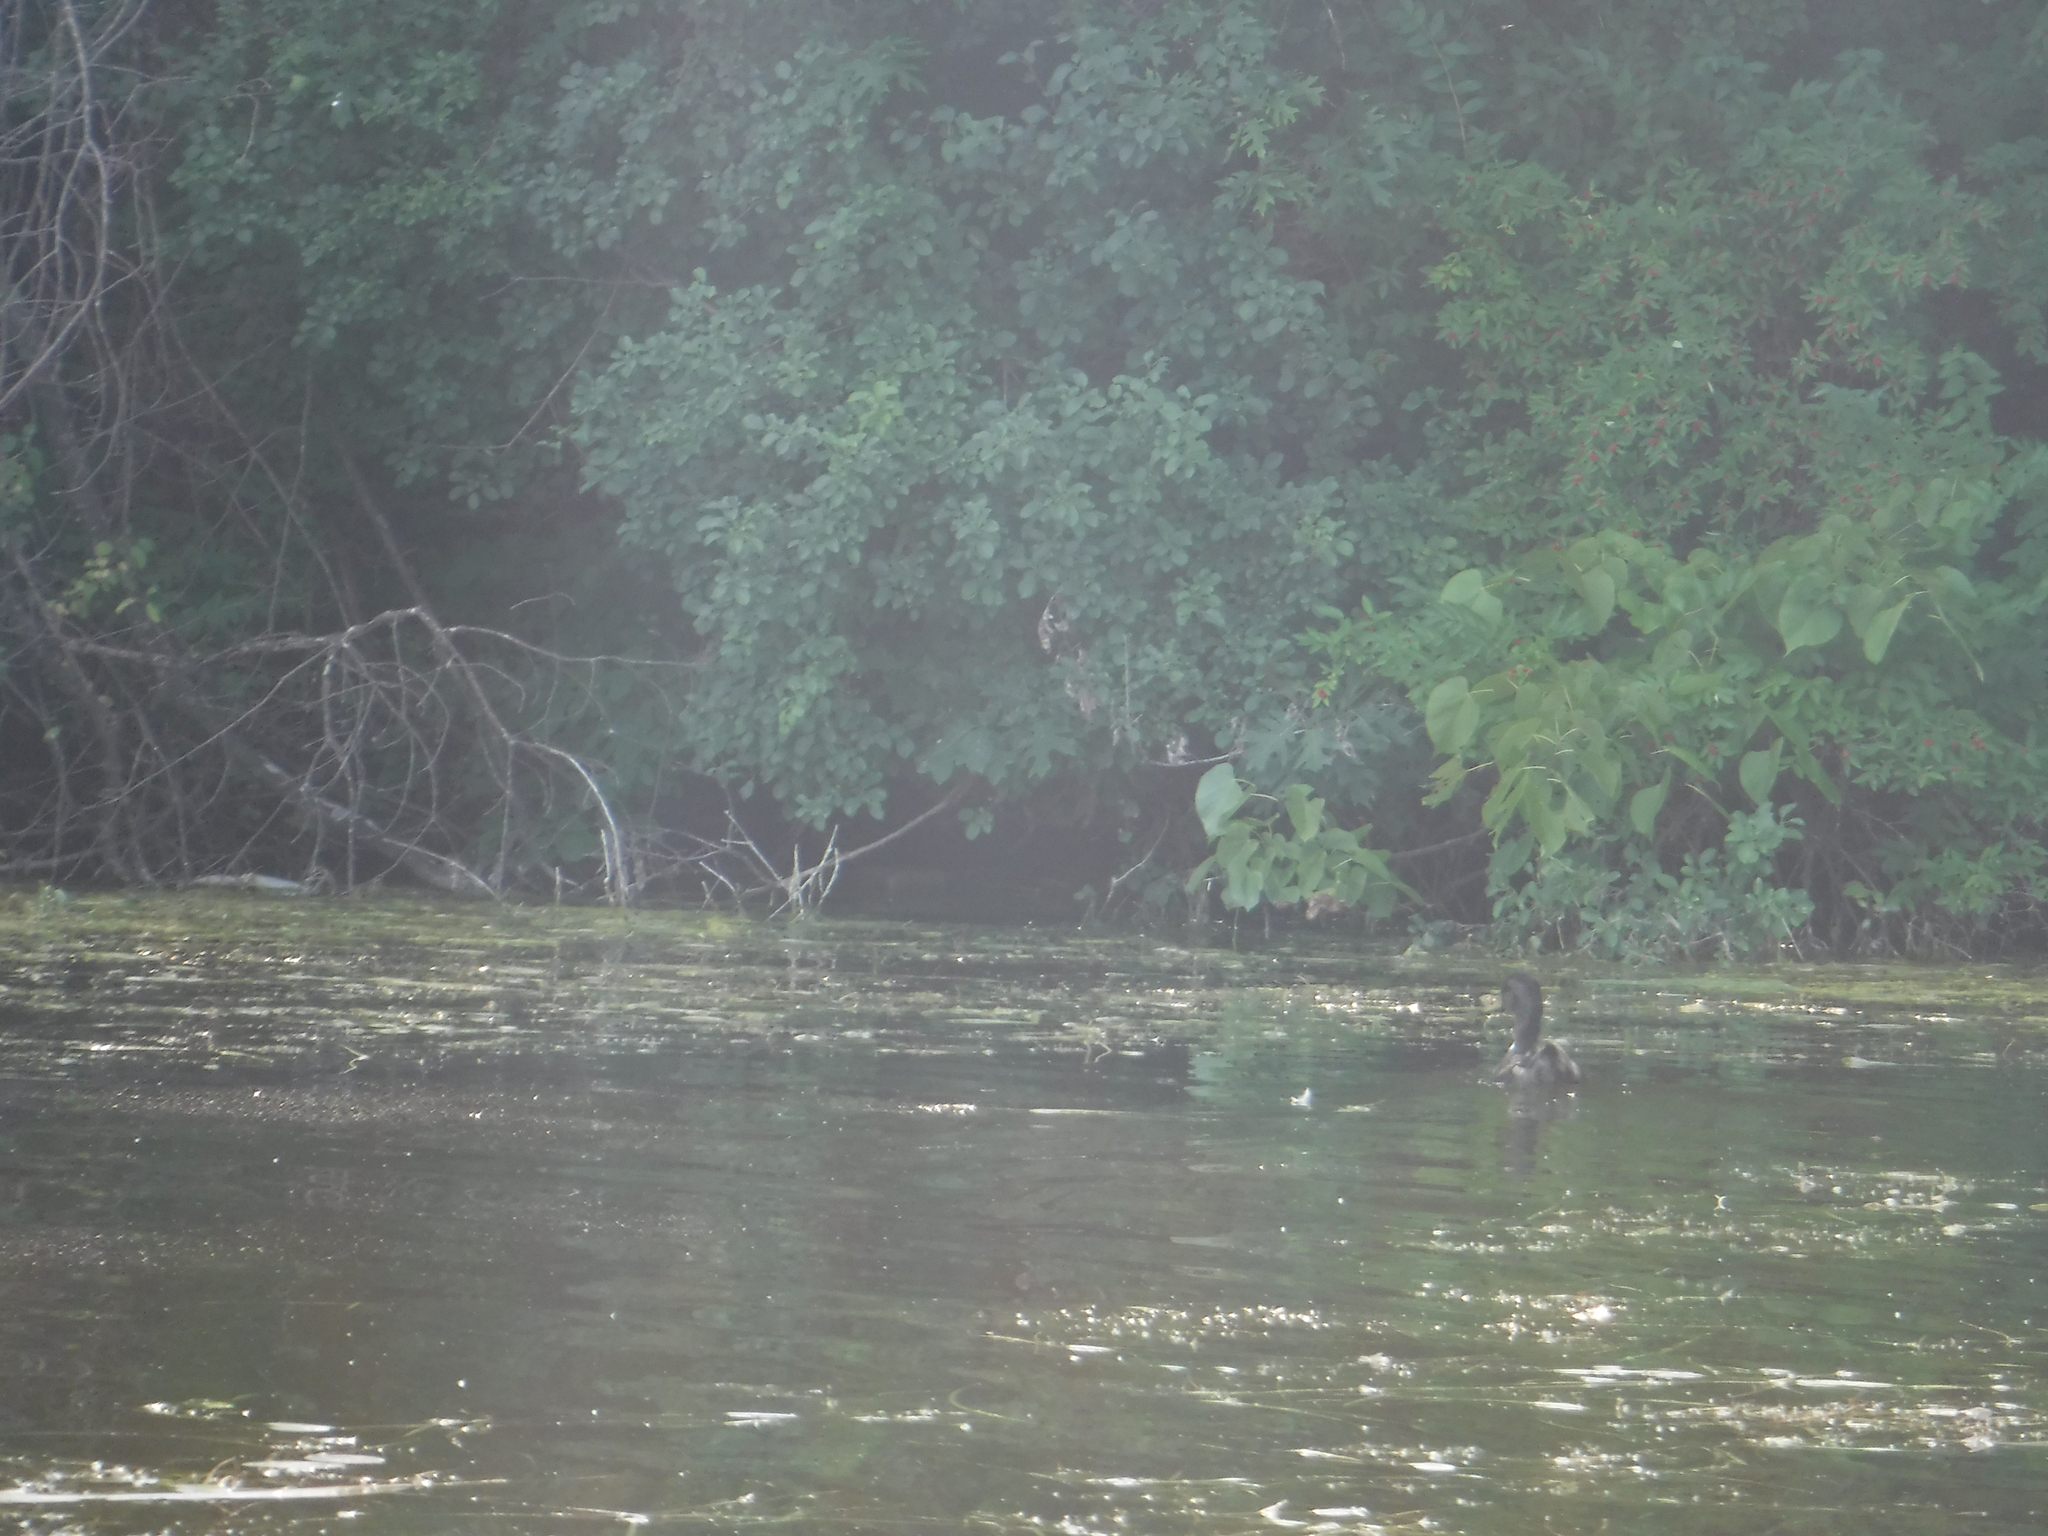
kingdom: Animalia
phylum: Chordata
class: Aves
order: Anseriformes
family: Anatidae
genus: Anas
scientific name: Anas platyrhynchos
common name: Mallard
